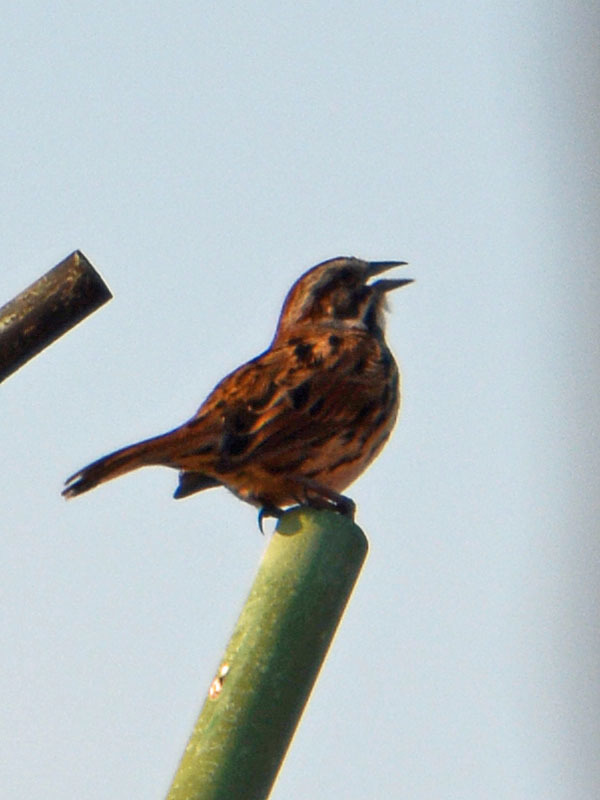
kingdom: Animalia
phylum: Chordata
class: Aves
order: Passeriformes
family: Passerellidae
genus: Melospiza
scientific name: Melospiza melodia
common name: Song sparrow
